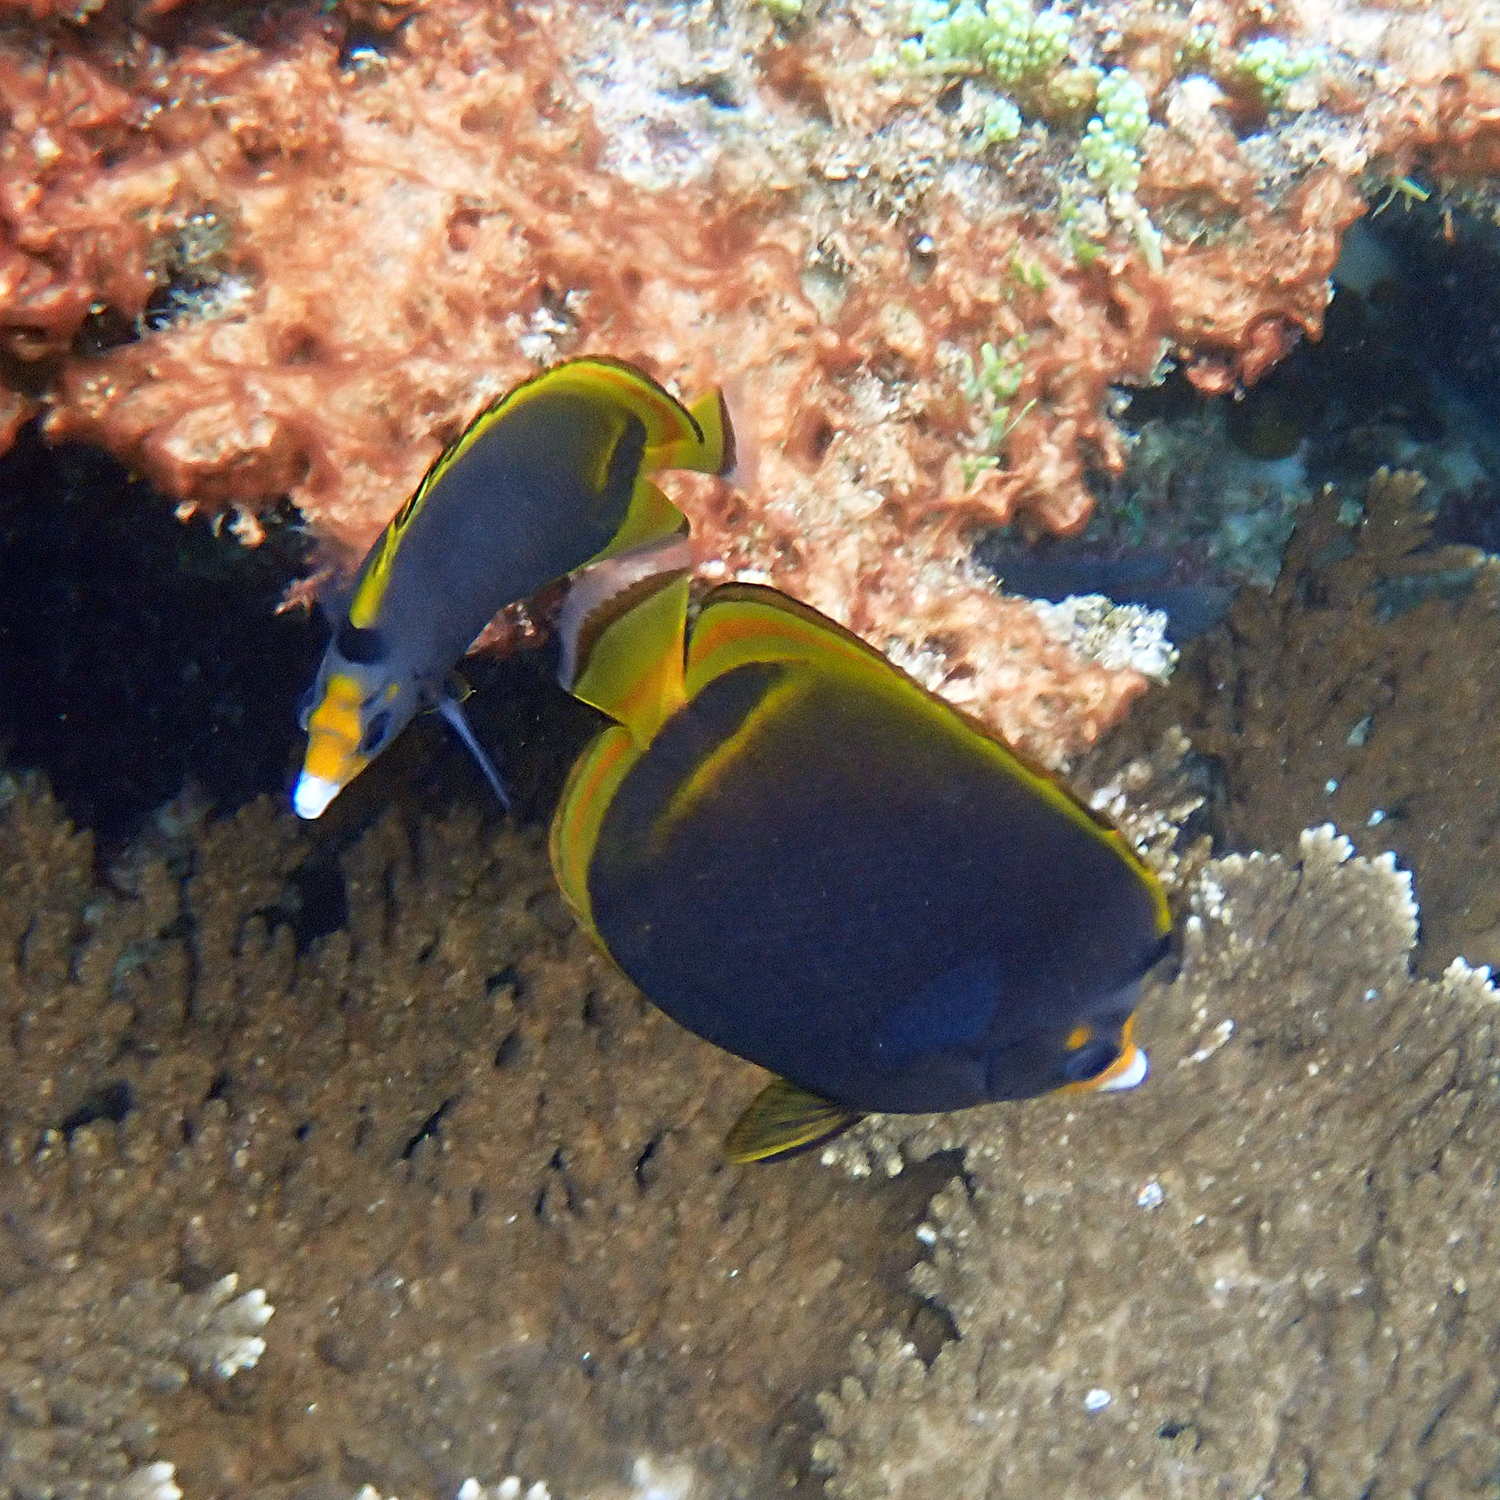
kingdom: Animalia
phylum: Chordata
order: Perciformes
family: Chaetodontidae
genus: Chaetodon
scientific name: Chaetodon flavirostris
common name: Black butterflyfish
